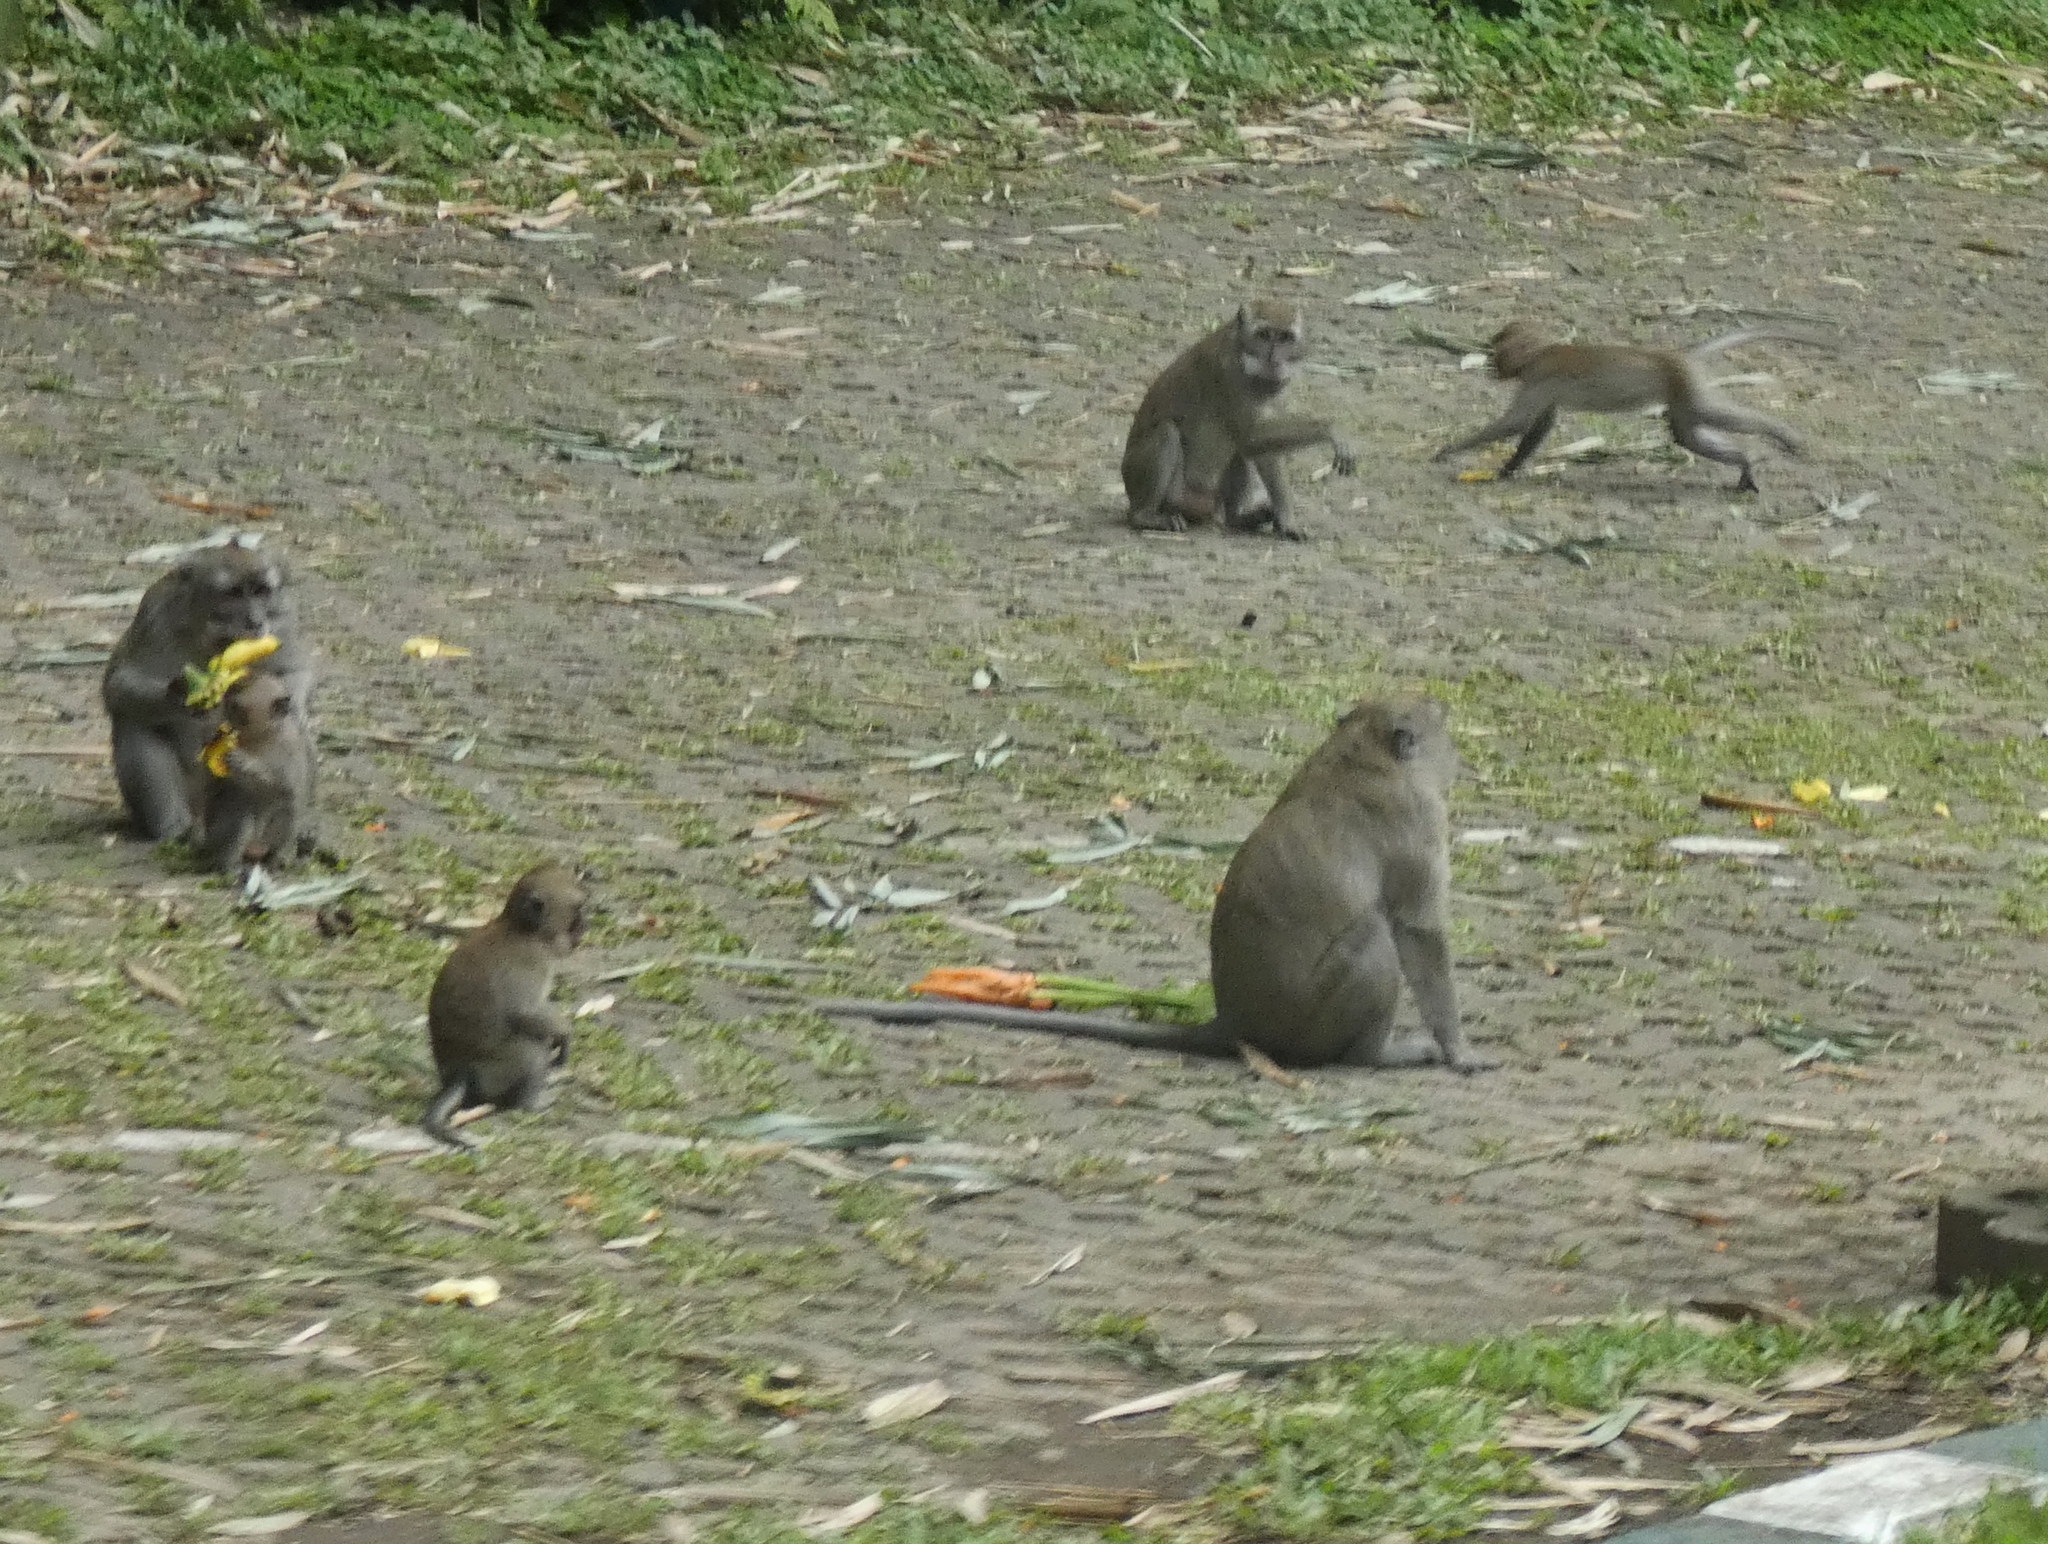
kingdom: Animalia
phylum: Chordata
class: Mammalia
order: Primates
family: Cercopithecidae
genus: Macaca
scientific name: Macaca fascicularis
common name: Crab-eating macaque
